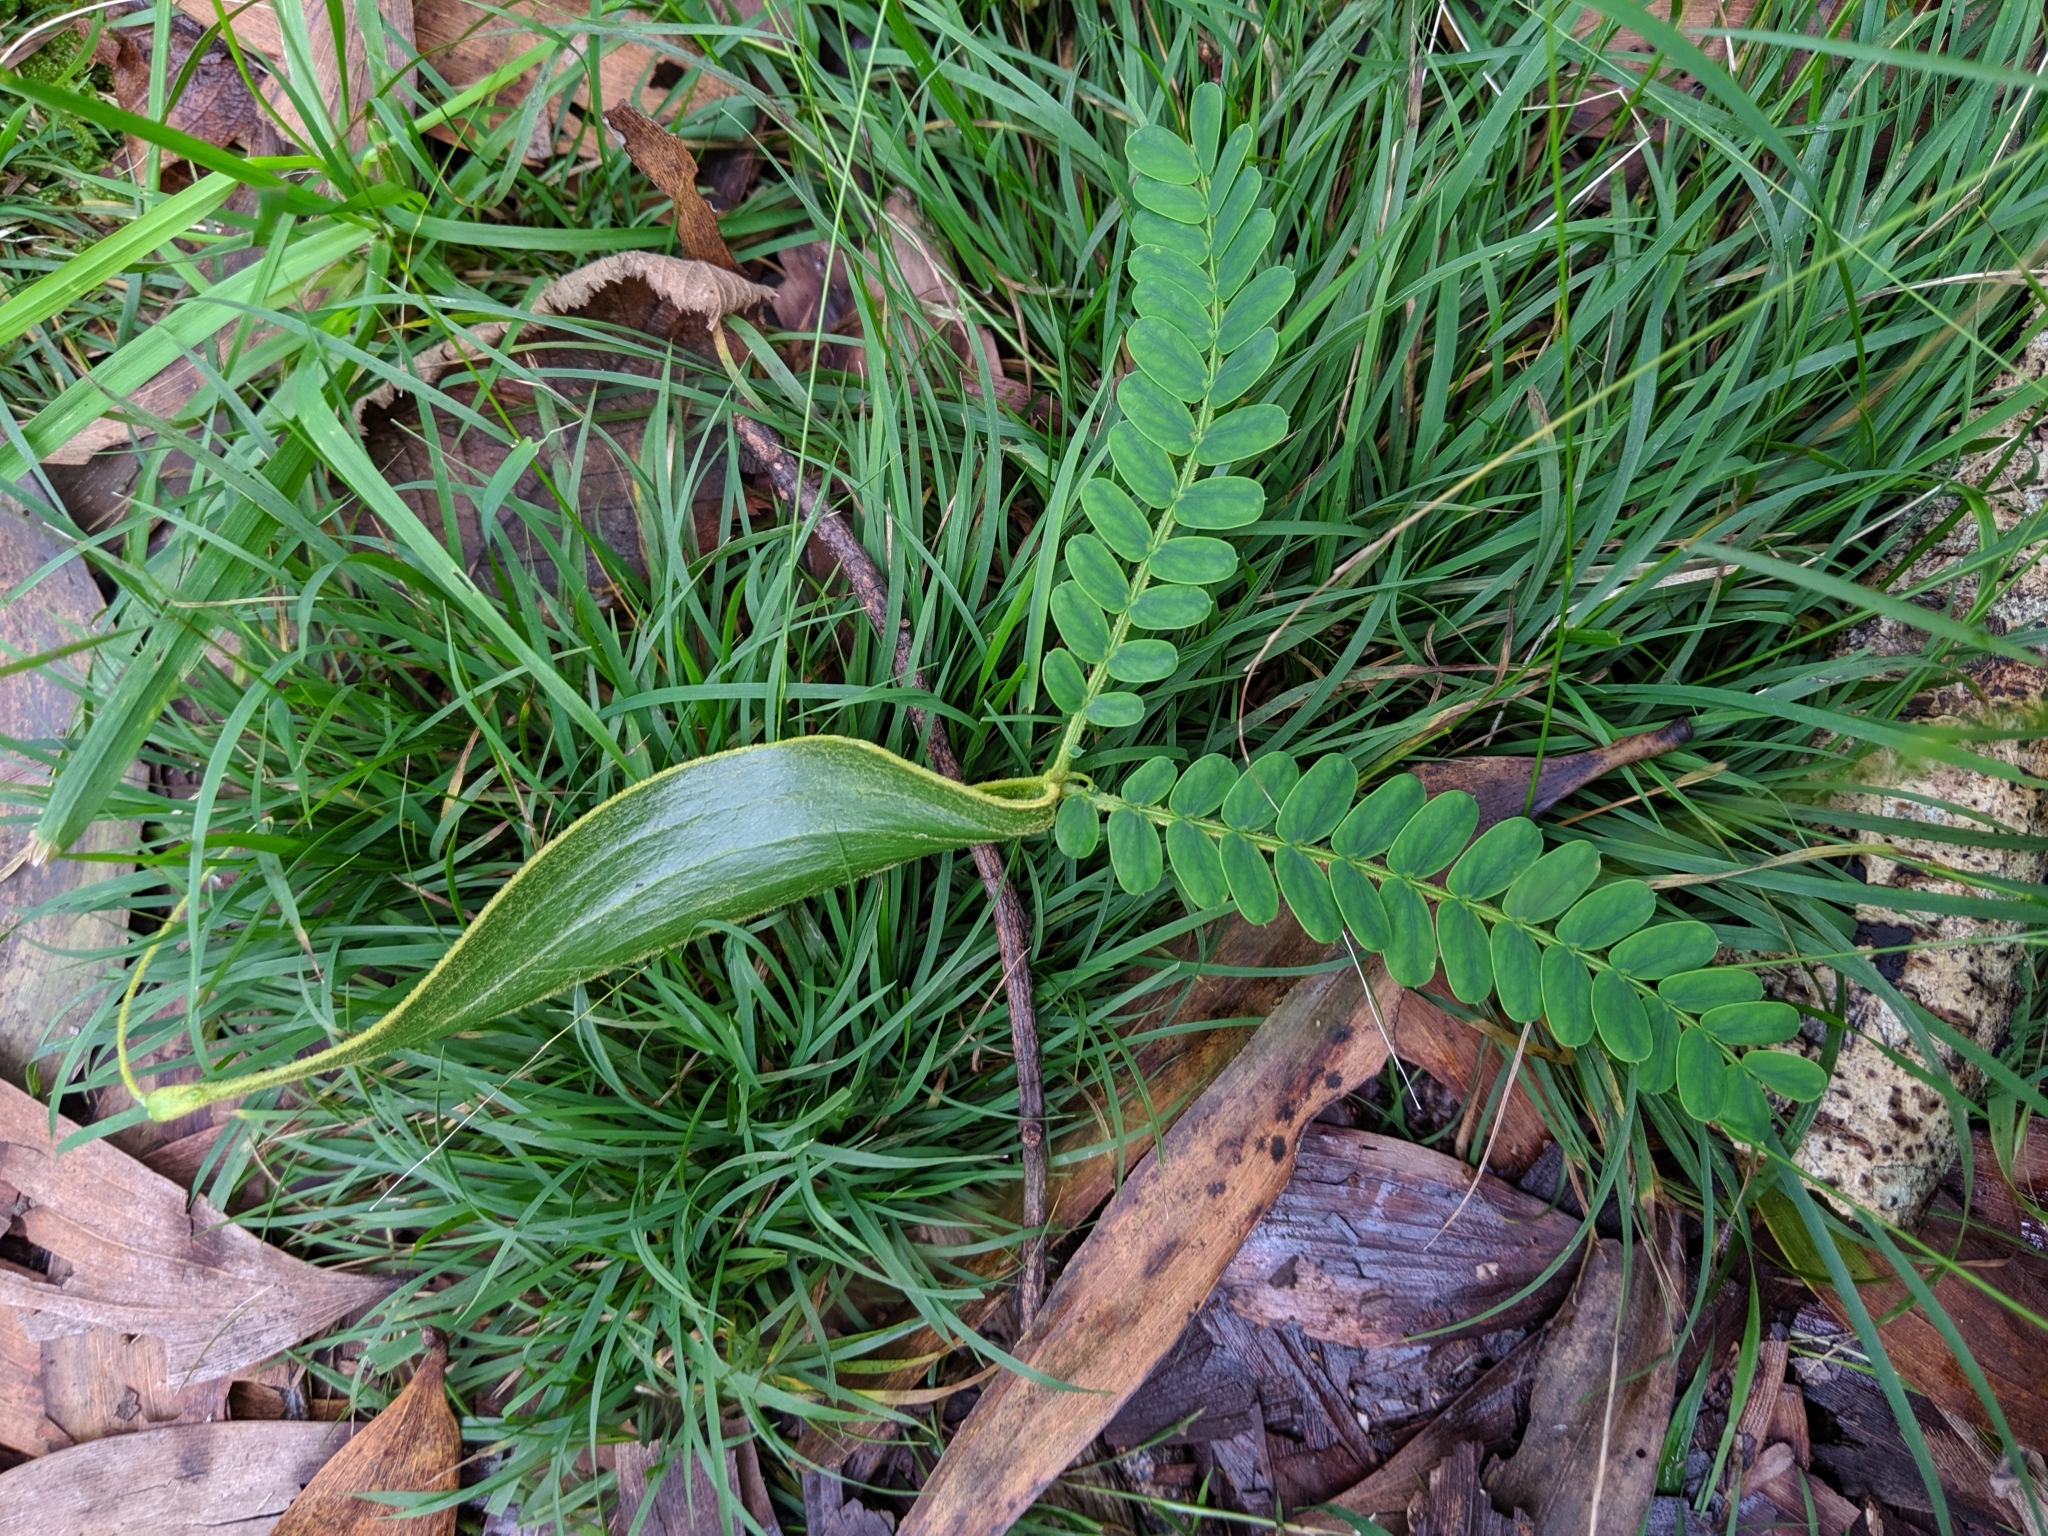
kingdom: Plantae
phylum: Tracheophyta
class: Magnoliopsida
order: Fabales
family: Fabaceae
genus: Acacia
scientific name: Acacia koa
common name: Gray koa
